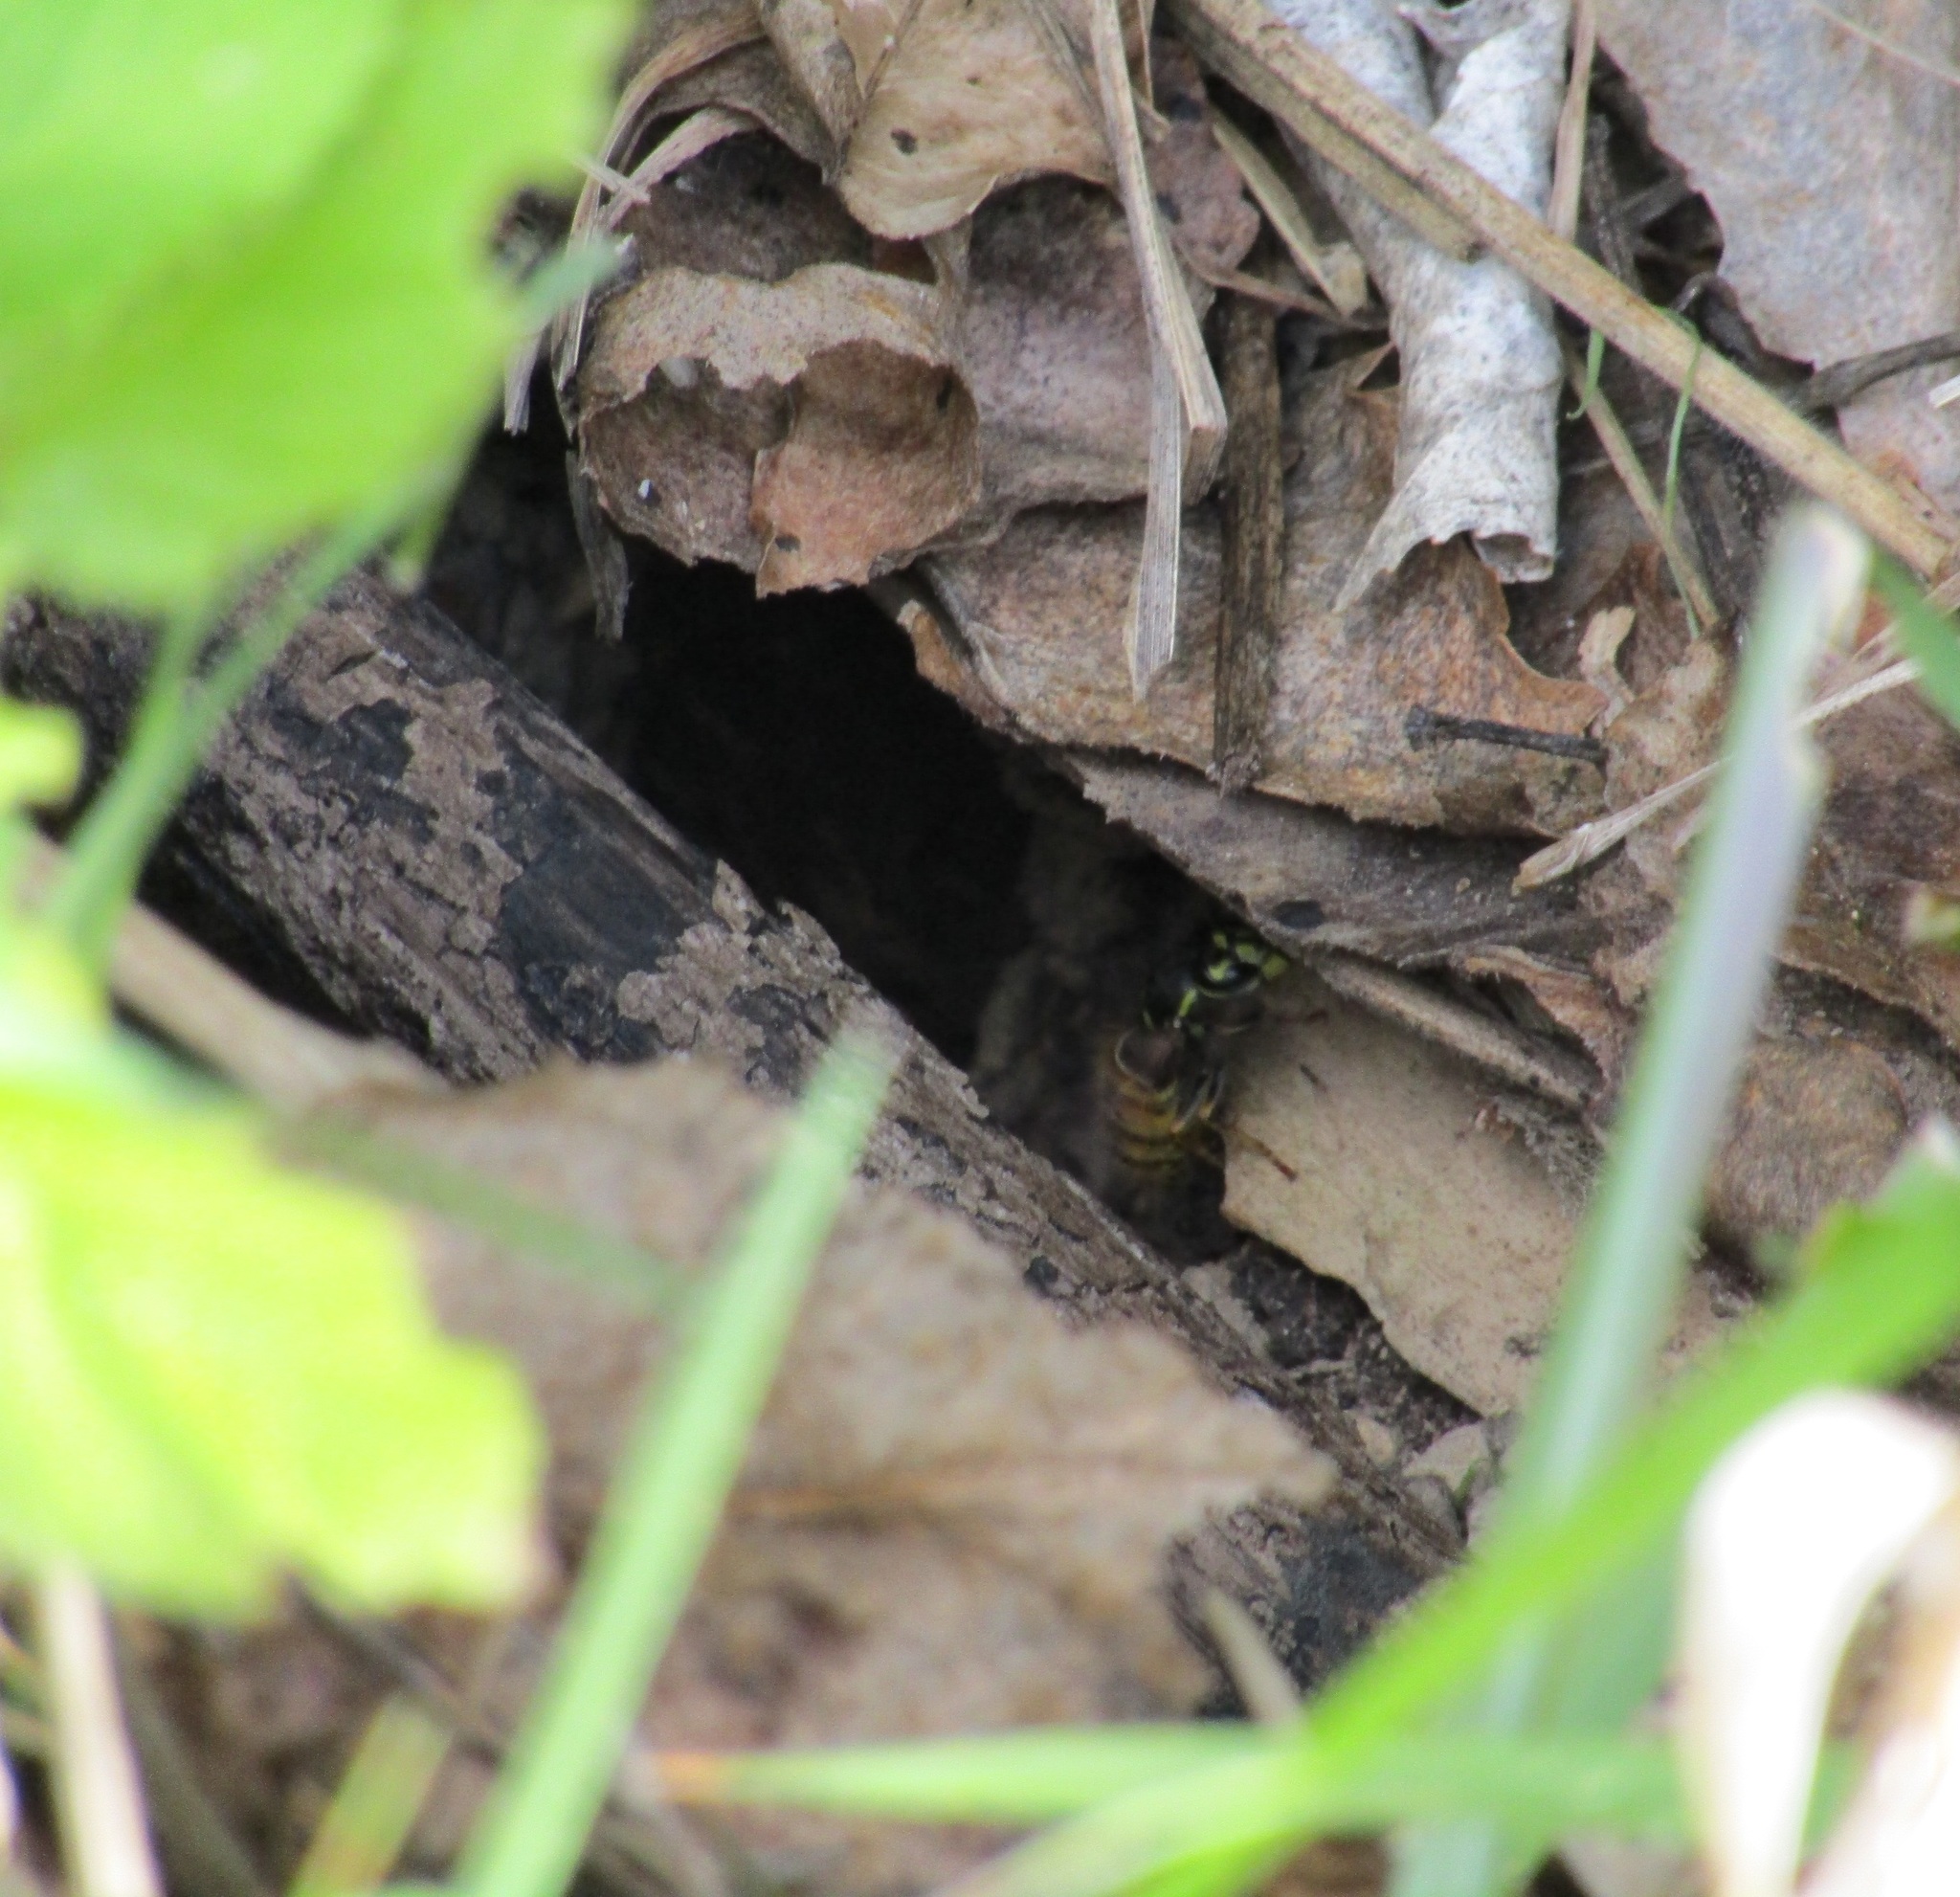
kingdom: Animalia
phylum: Arthropoda
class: Insecta
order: Hymenoptera
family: Vespidae
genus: Vespula
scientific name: Vespula vulgaris
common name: Common wasp
